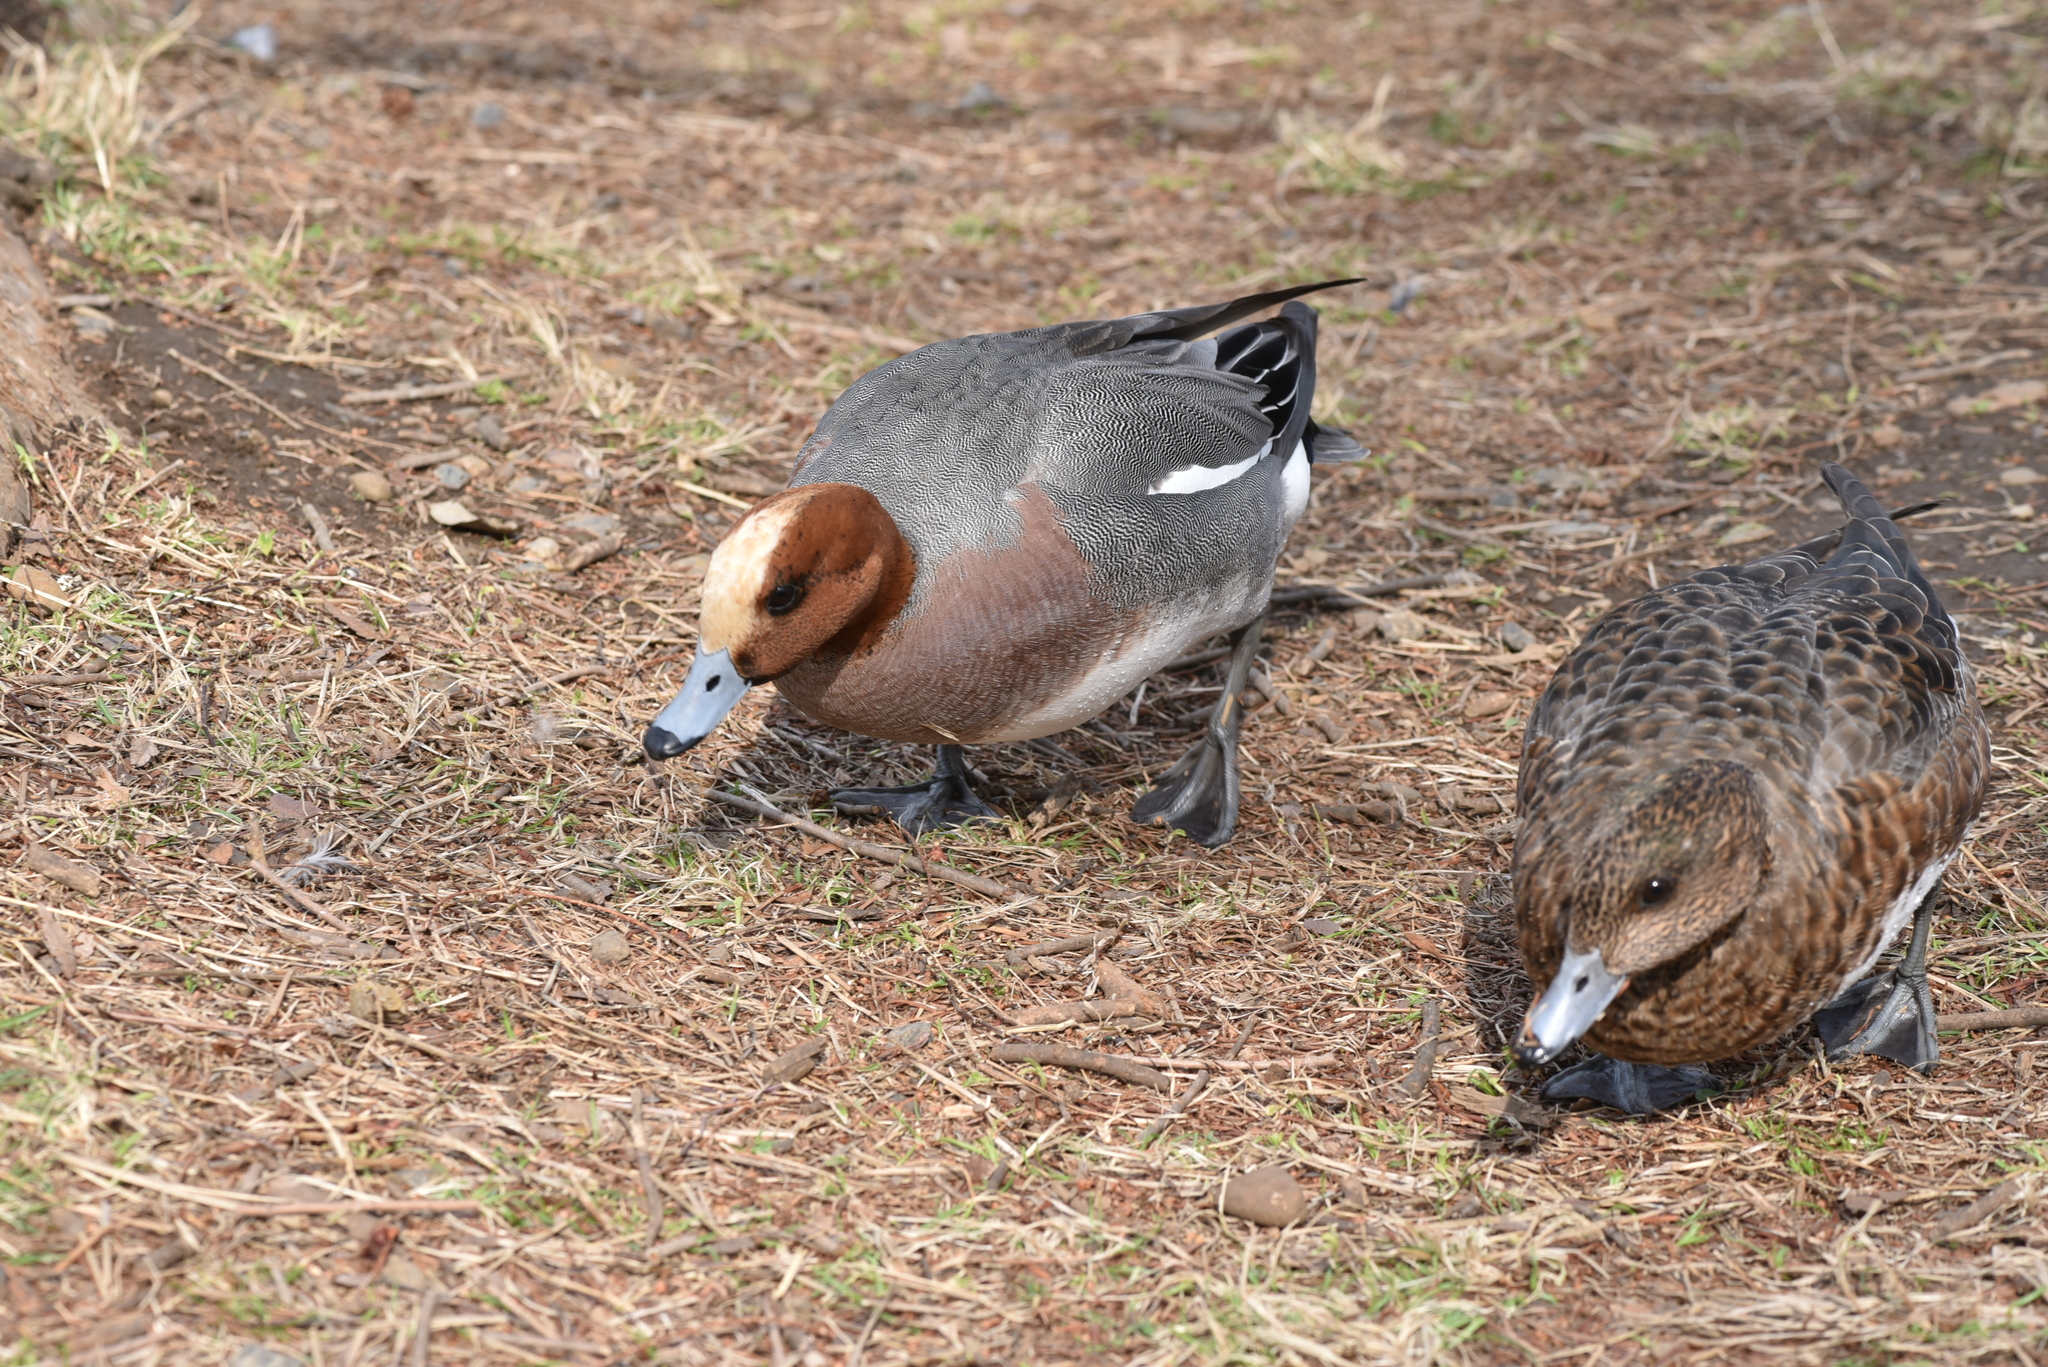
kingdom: Animalia
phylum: Chordata
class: Aves
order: Anseriformes
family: Anatidae
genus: Mareca
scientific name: Mareca penelope
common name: Eurasian wigeon
